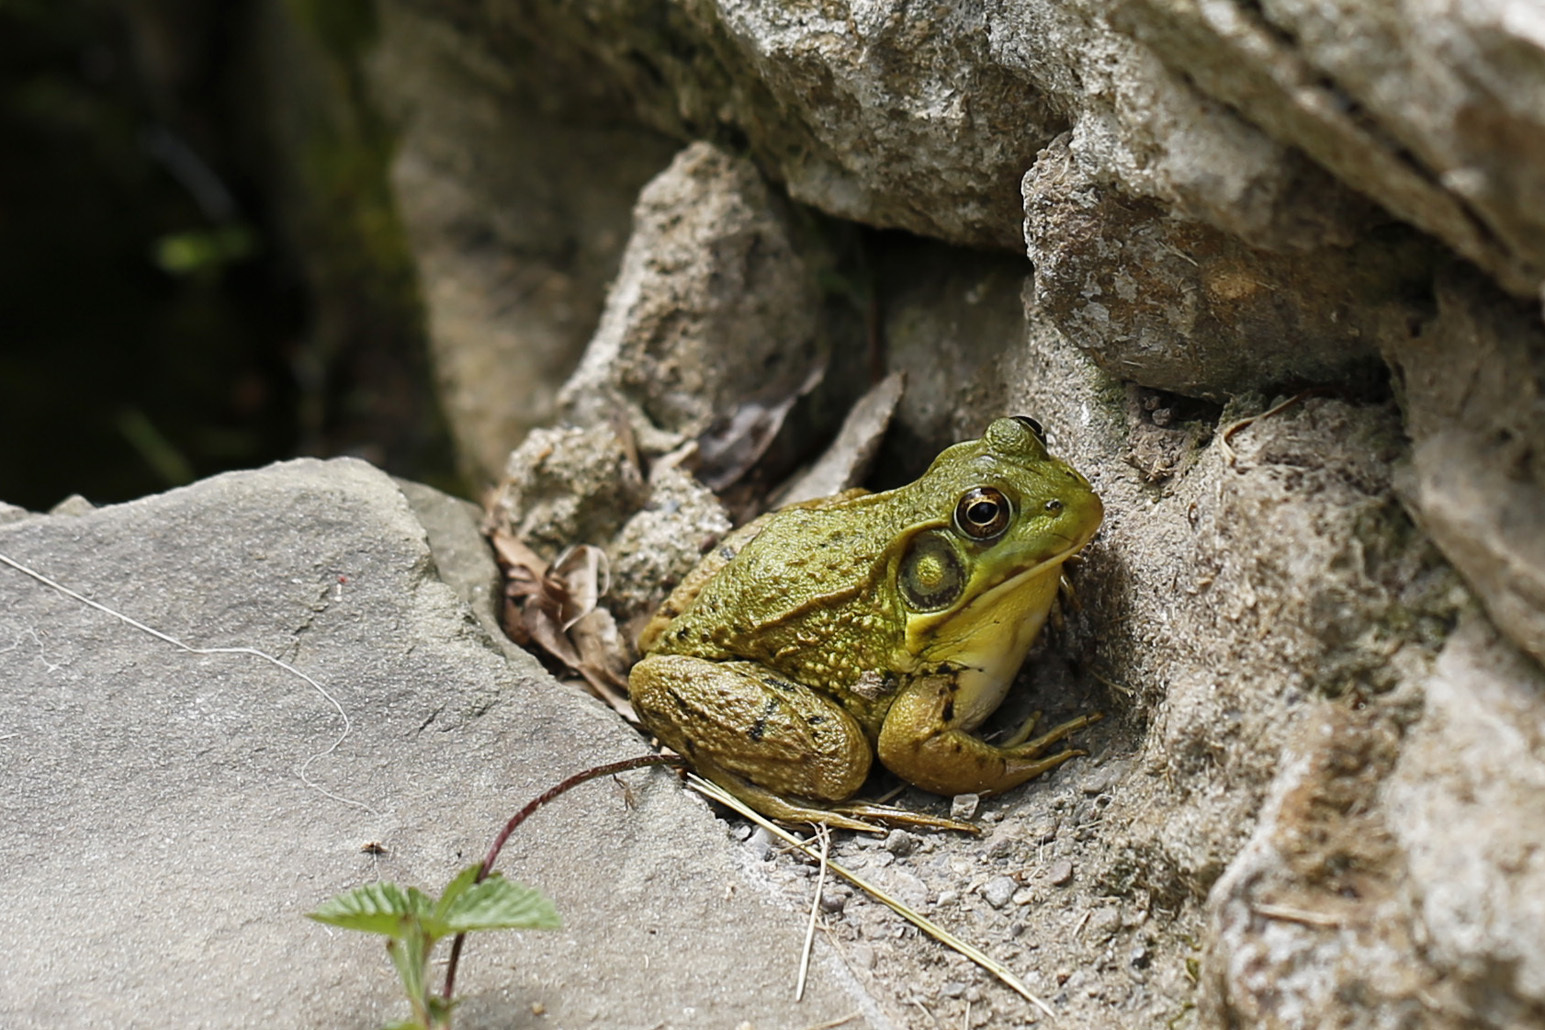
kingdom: Animalia
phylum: Chordata
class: Amphibia
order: Anura
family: Ranidae
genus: Lithobates
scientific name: Lithobates clamitans
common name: Green frog
